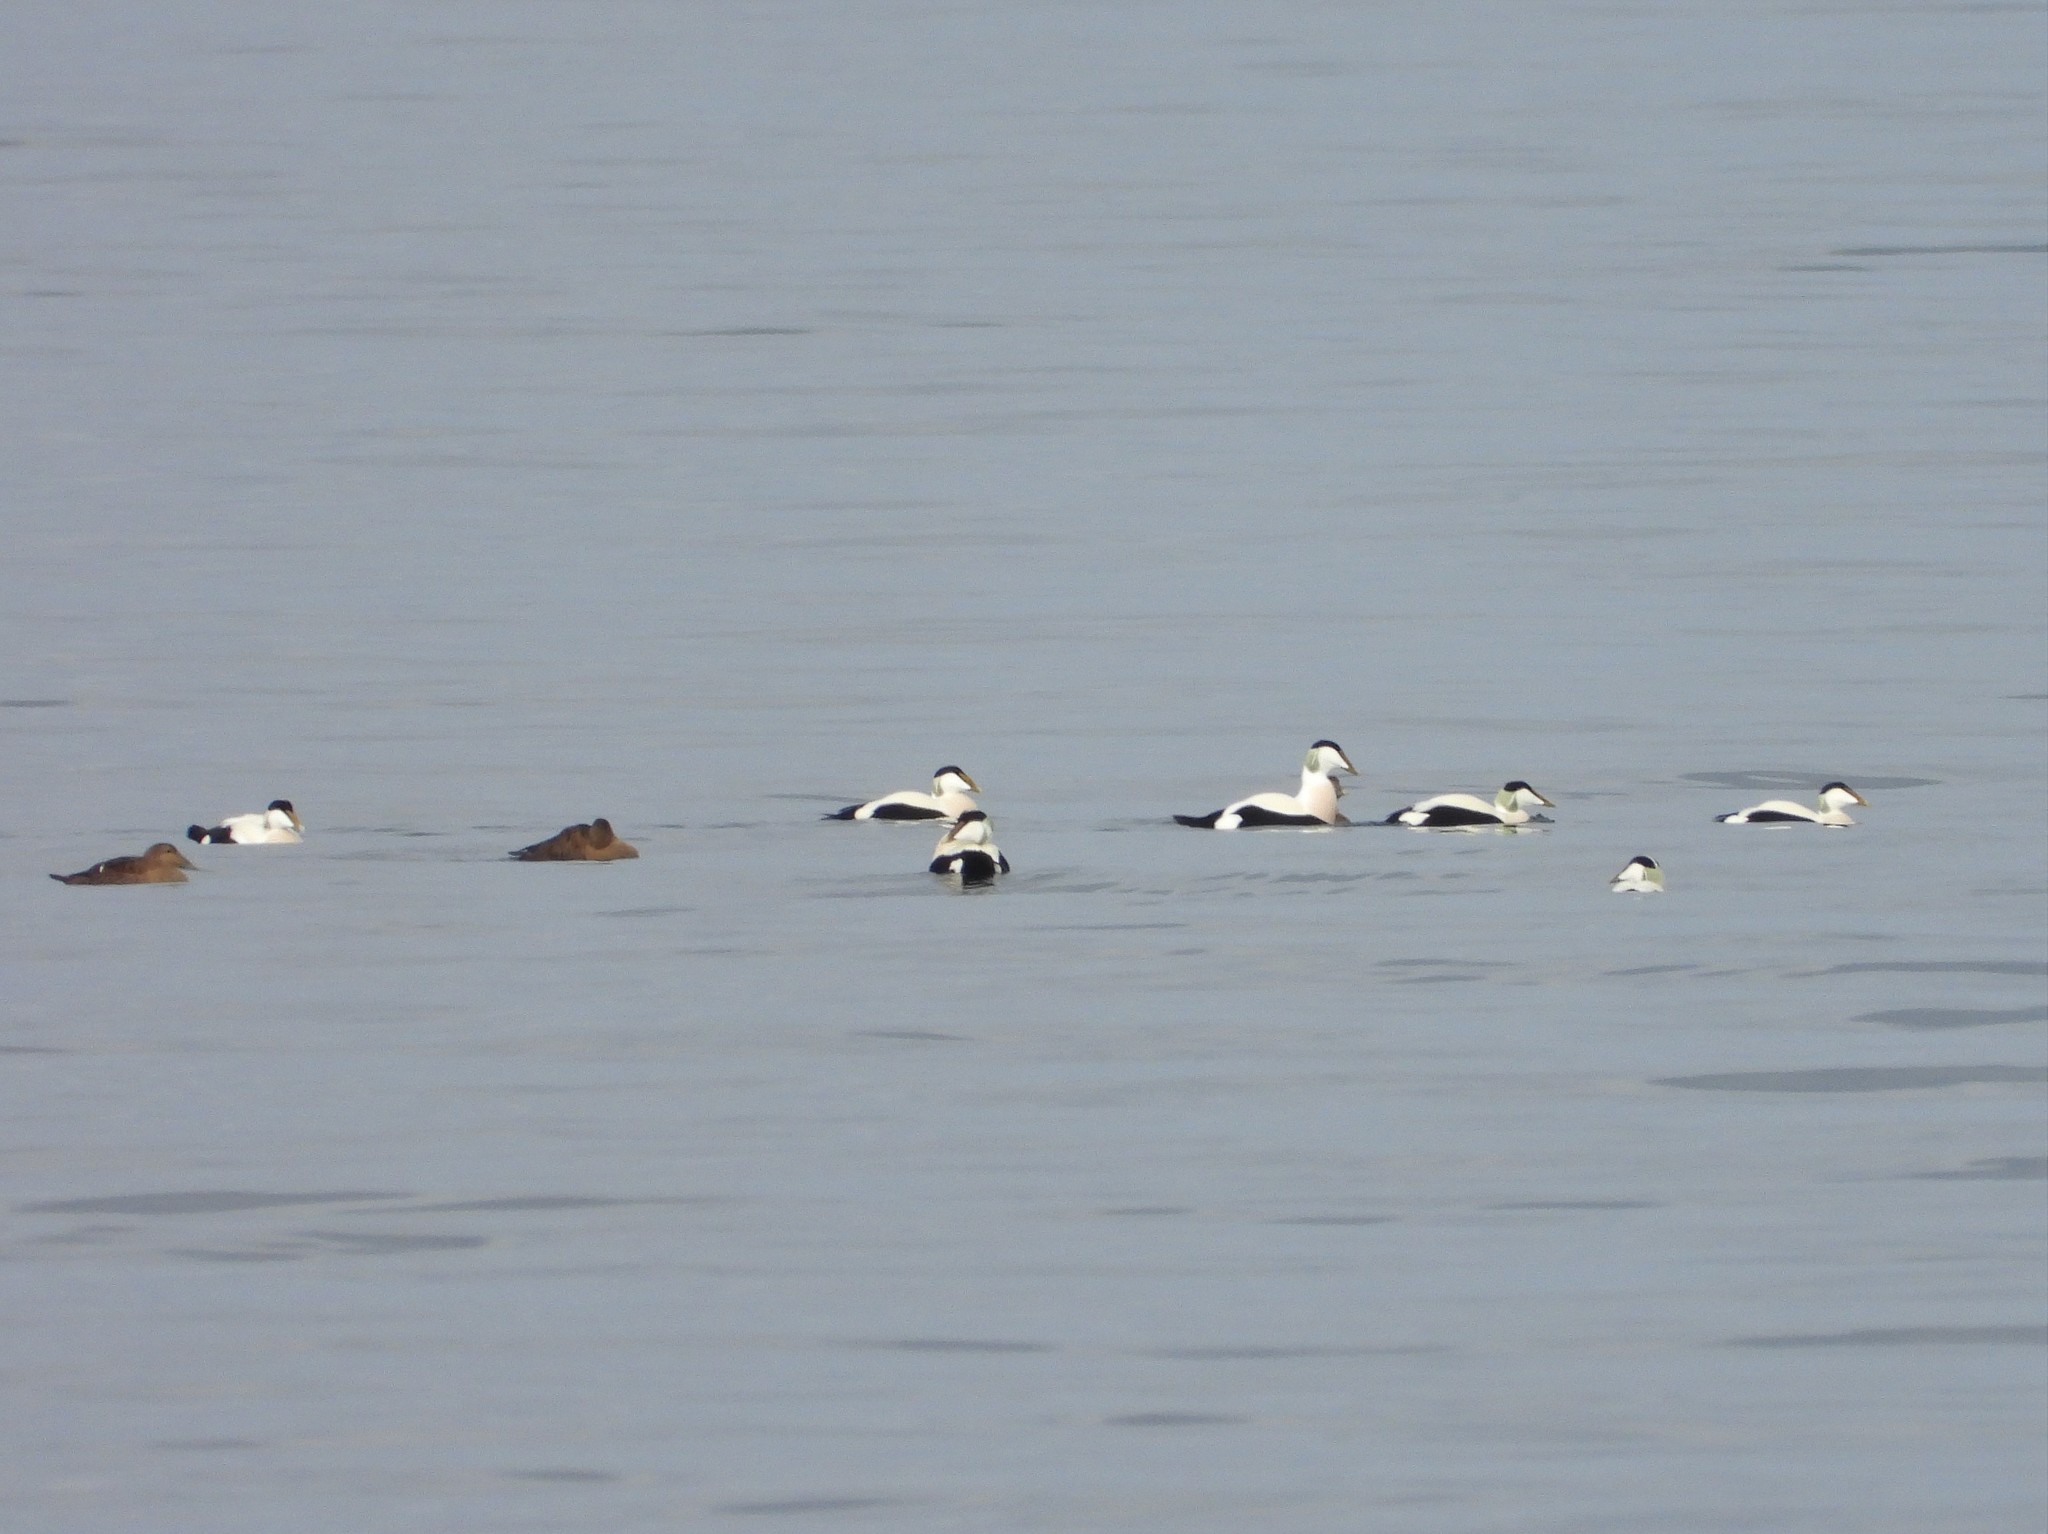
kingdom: Animalia
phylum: Chordata
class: Aves
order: Anseriformes
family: Anatidae
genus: Somateria
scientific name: Somateria mollissima
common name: Common eider
